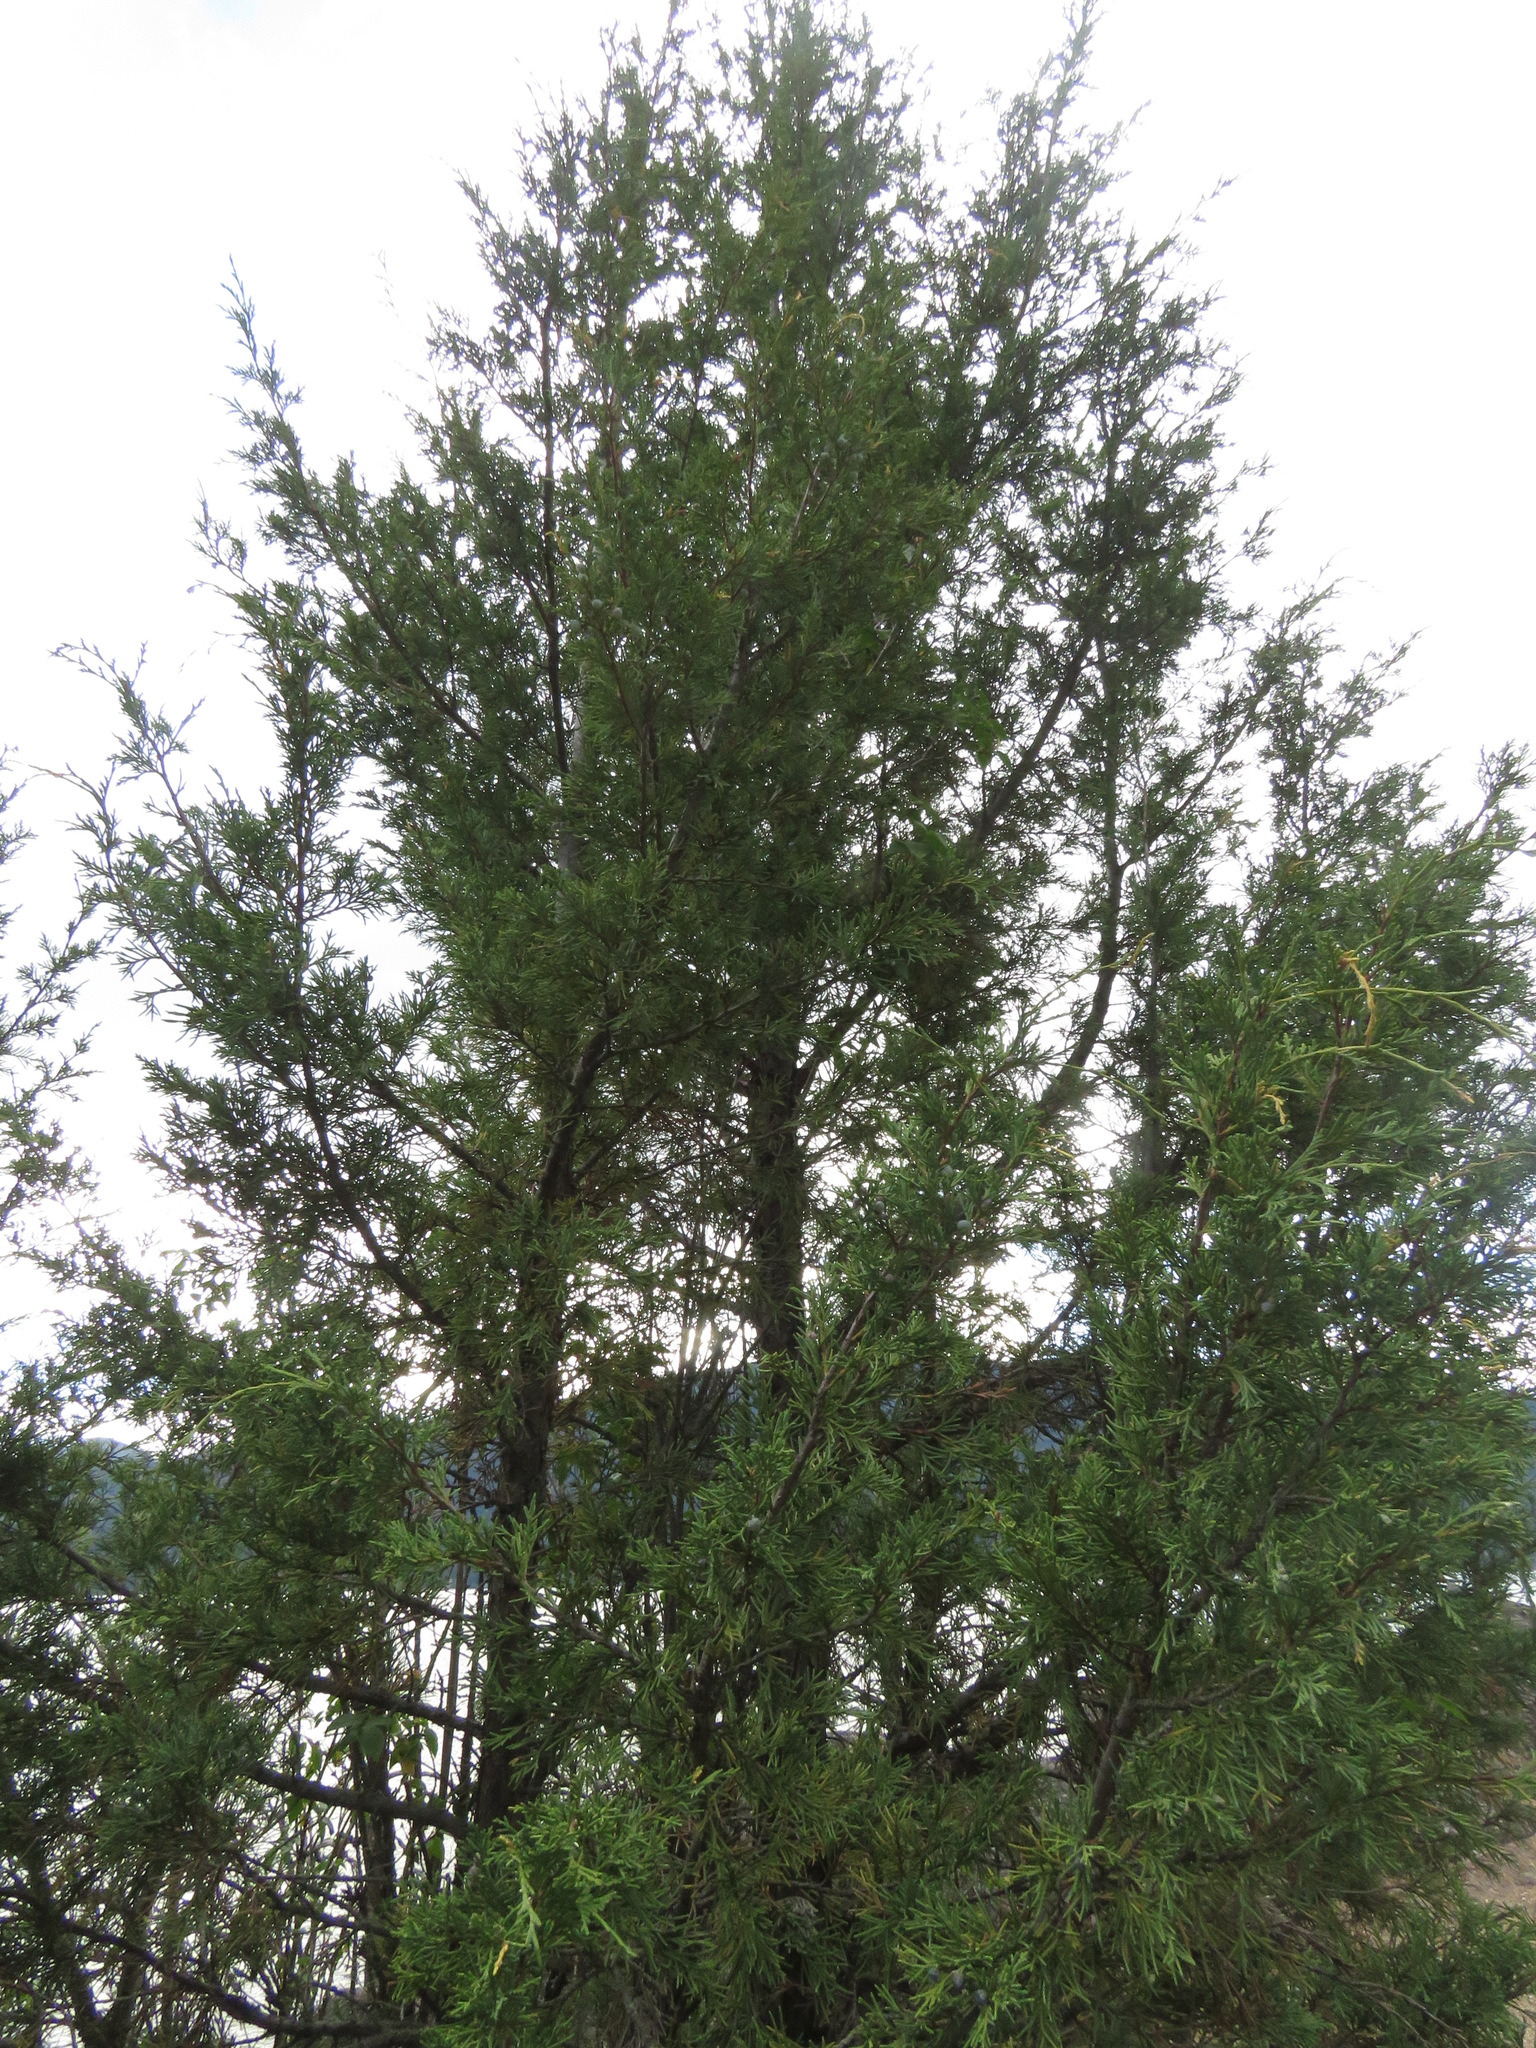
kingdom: Plantae
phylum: Tracheophyta
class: Pinopsida
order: Pinales
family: Cupressaceae
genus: Juniperus
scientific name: Juniperus scopulorum
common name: Rocky mountain juniper
